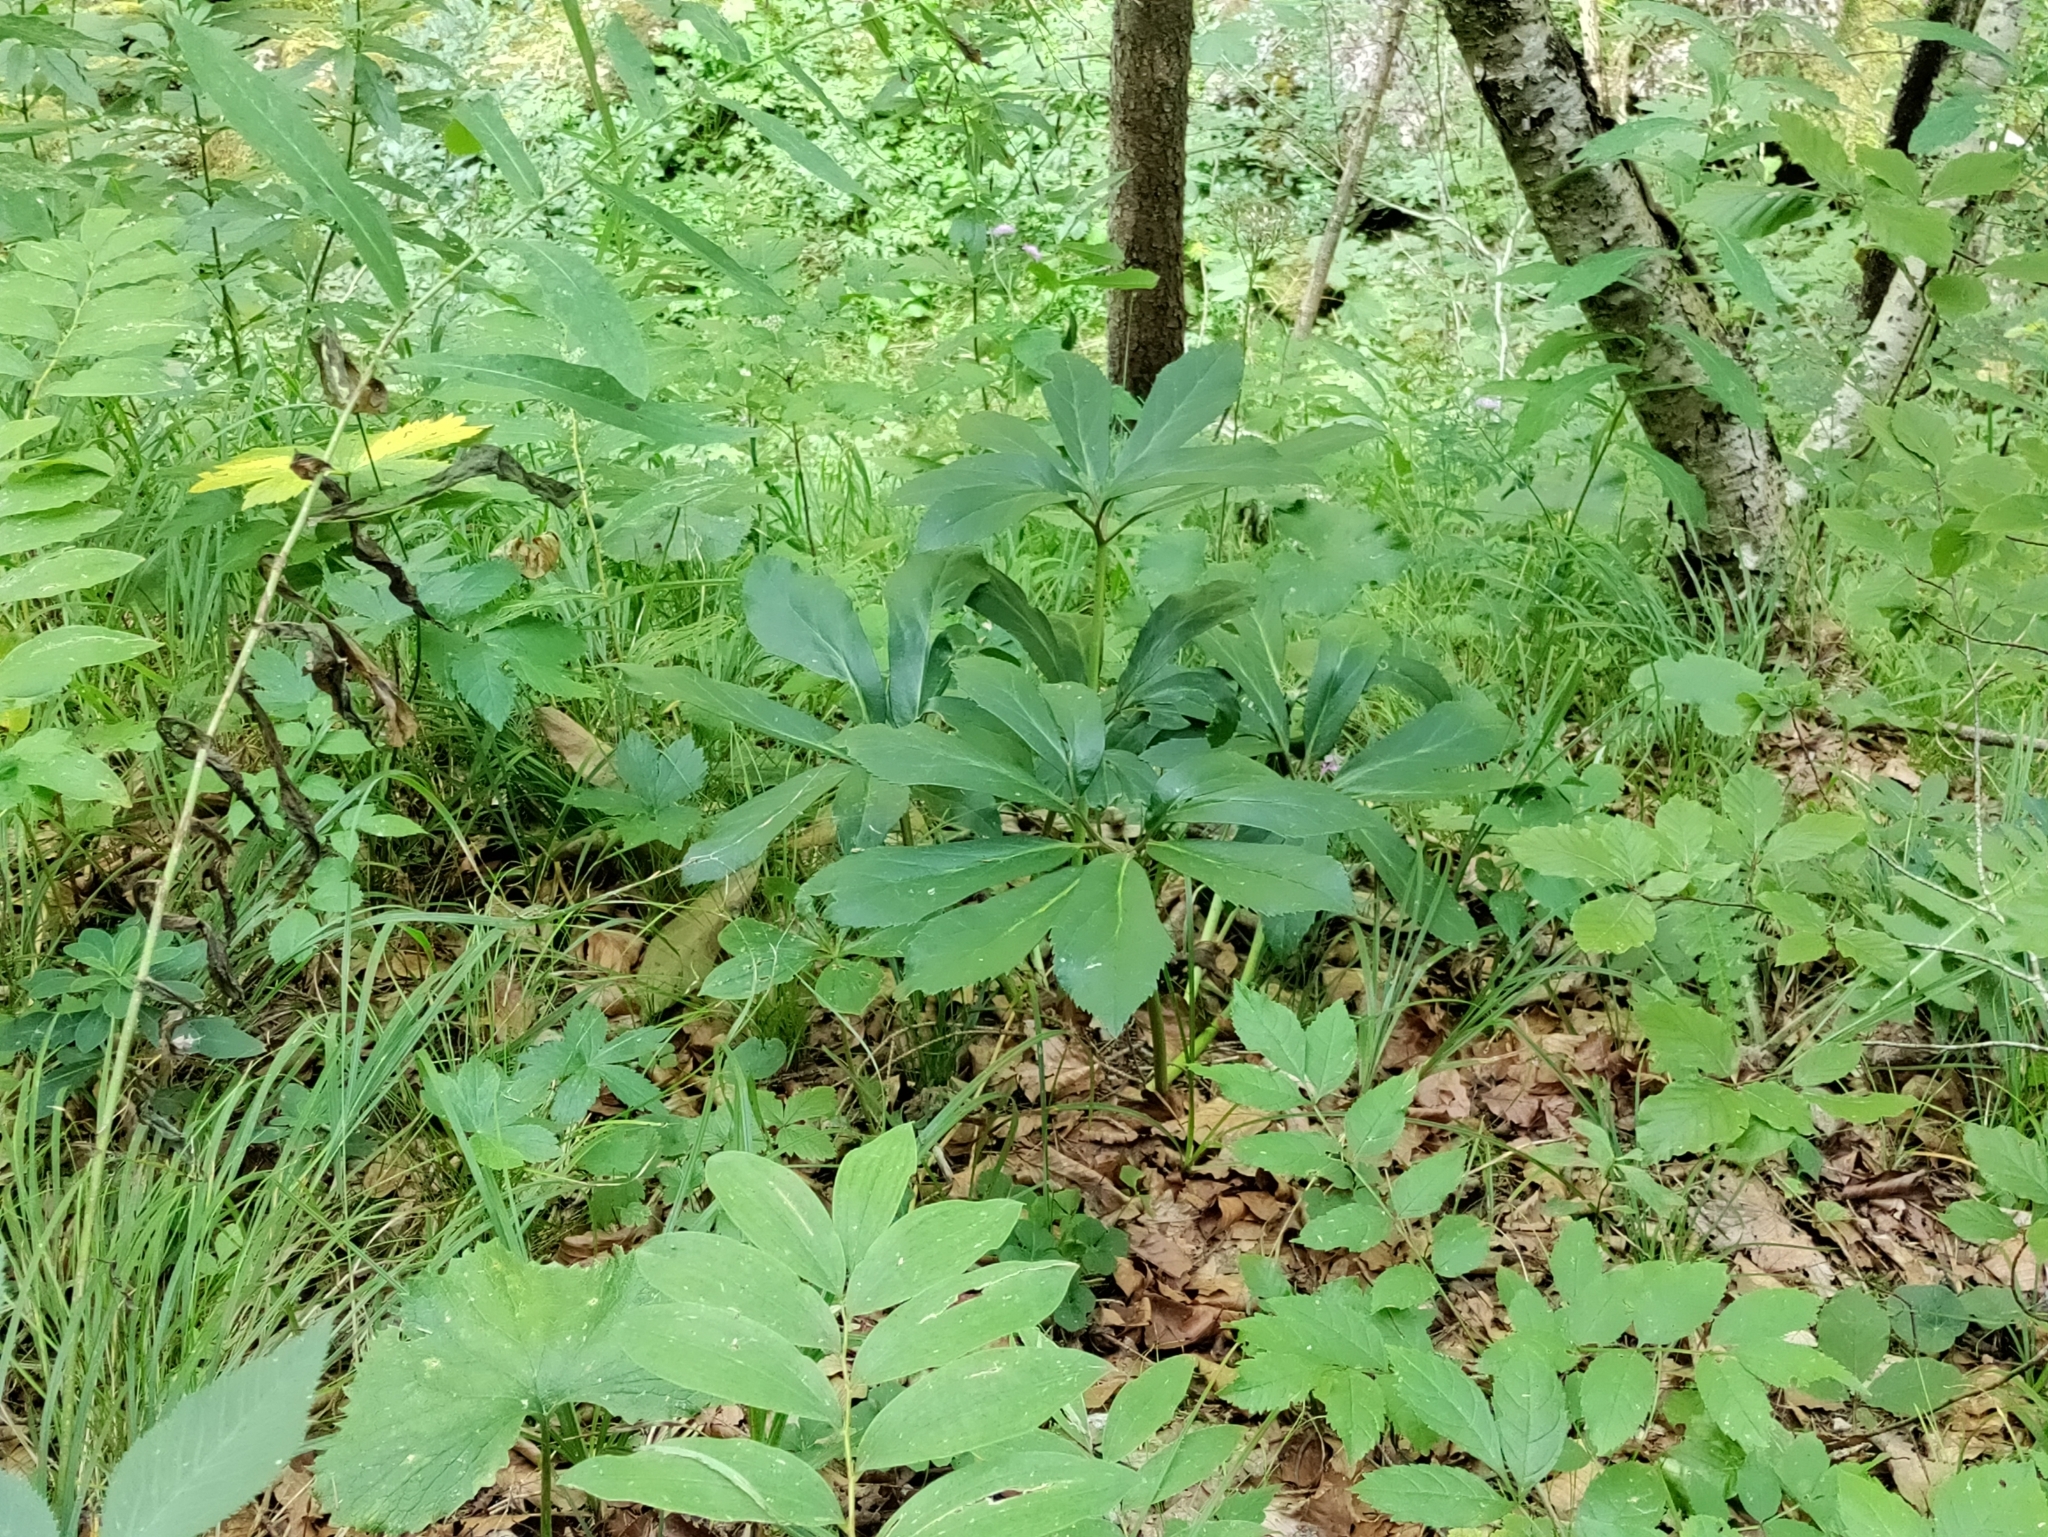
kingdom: Plantae
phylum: Tracheophyta
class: Magnoliopsida
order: Ranunculales
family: Ranunculaceae
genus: Helleborus
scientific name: Helleborus niger
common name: Black hellebore
